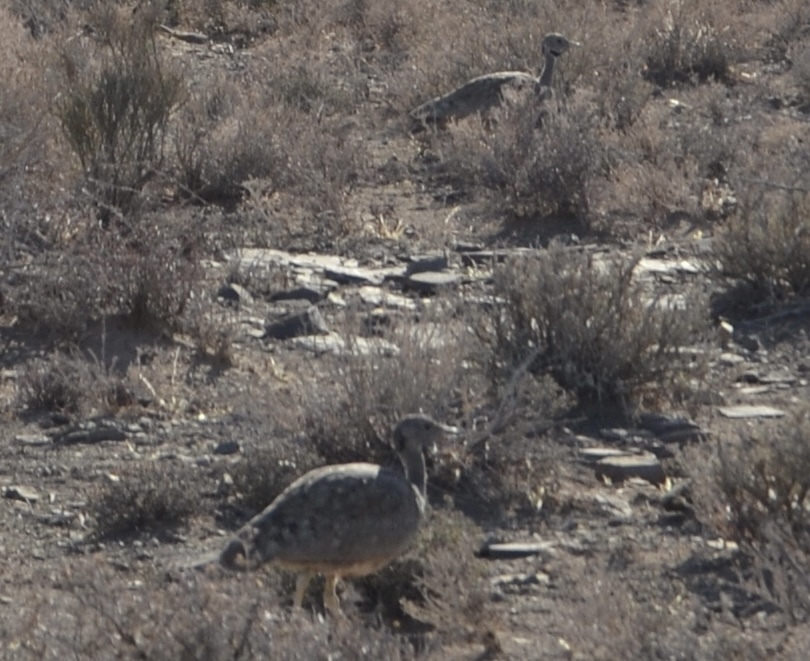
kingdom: Animalia
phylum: Chordata
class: Aves
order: Otidiformes
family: Otididae
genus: Eupodotis
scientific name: Eupodotis vigorsii
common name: Karoo korhaan
